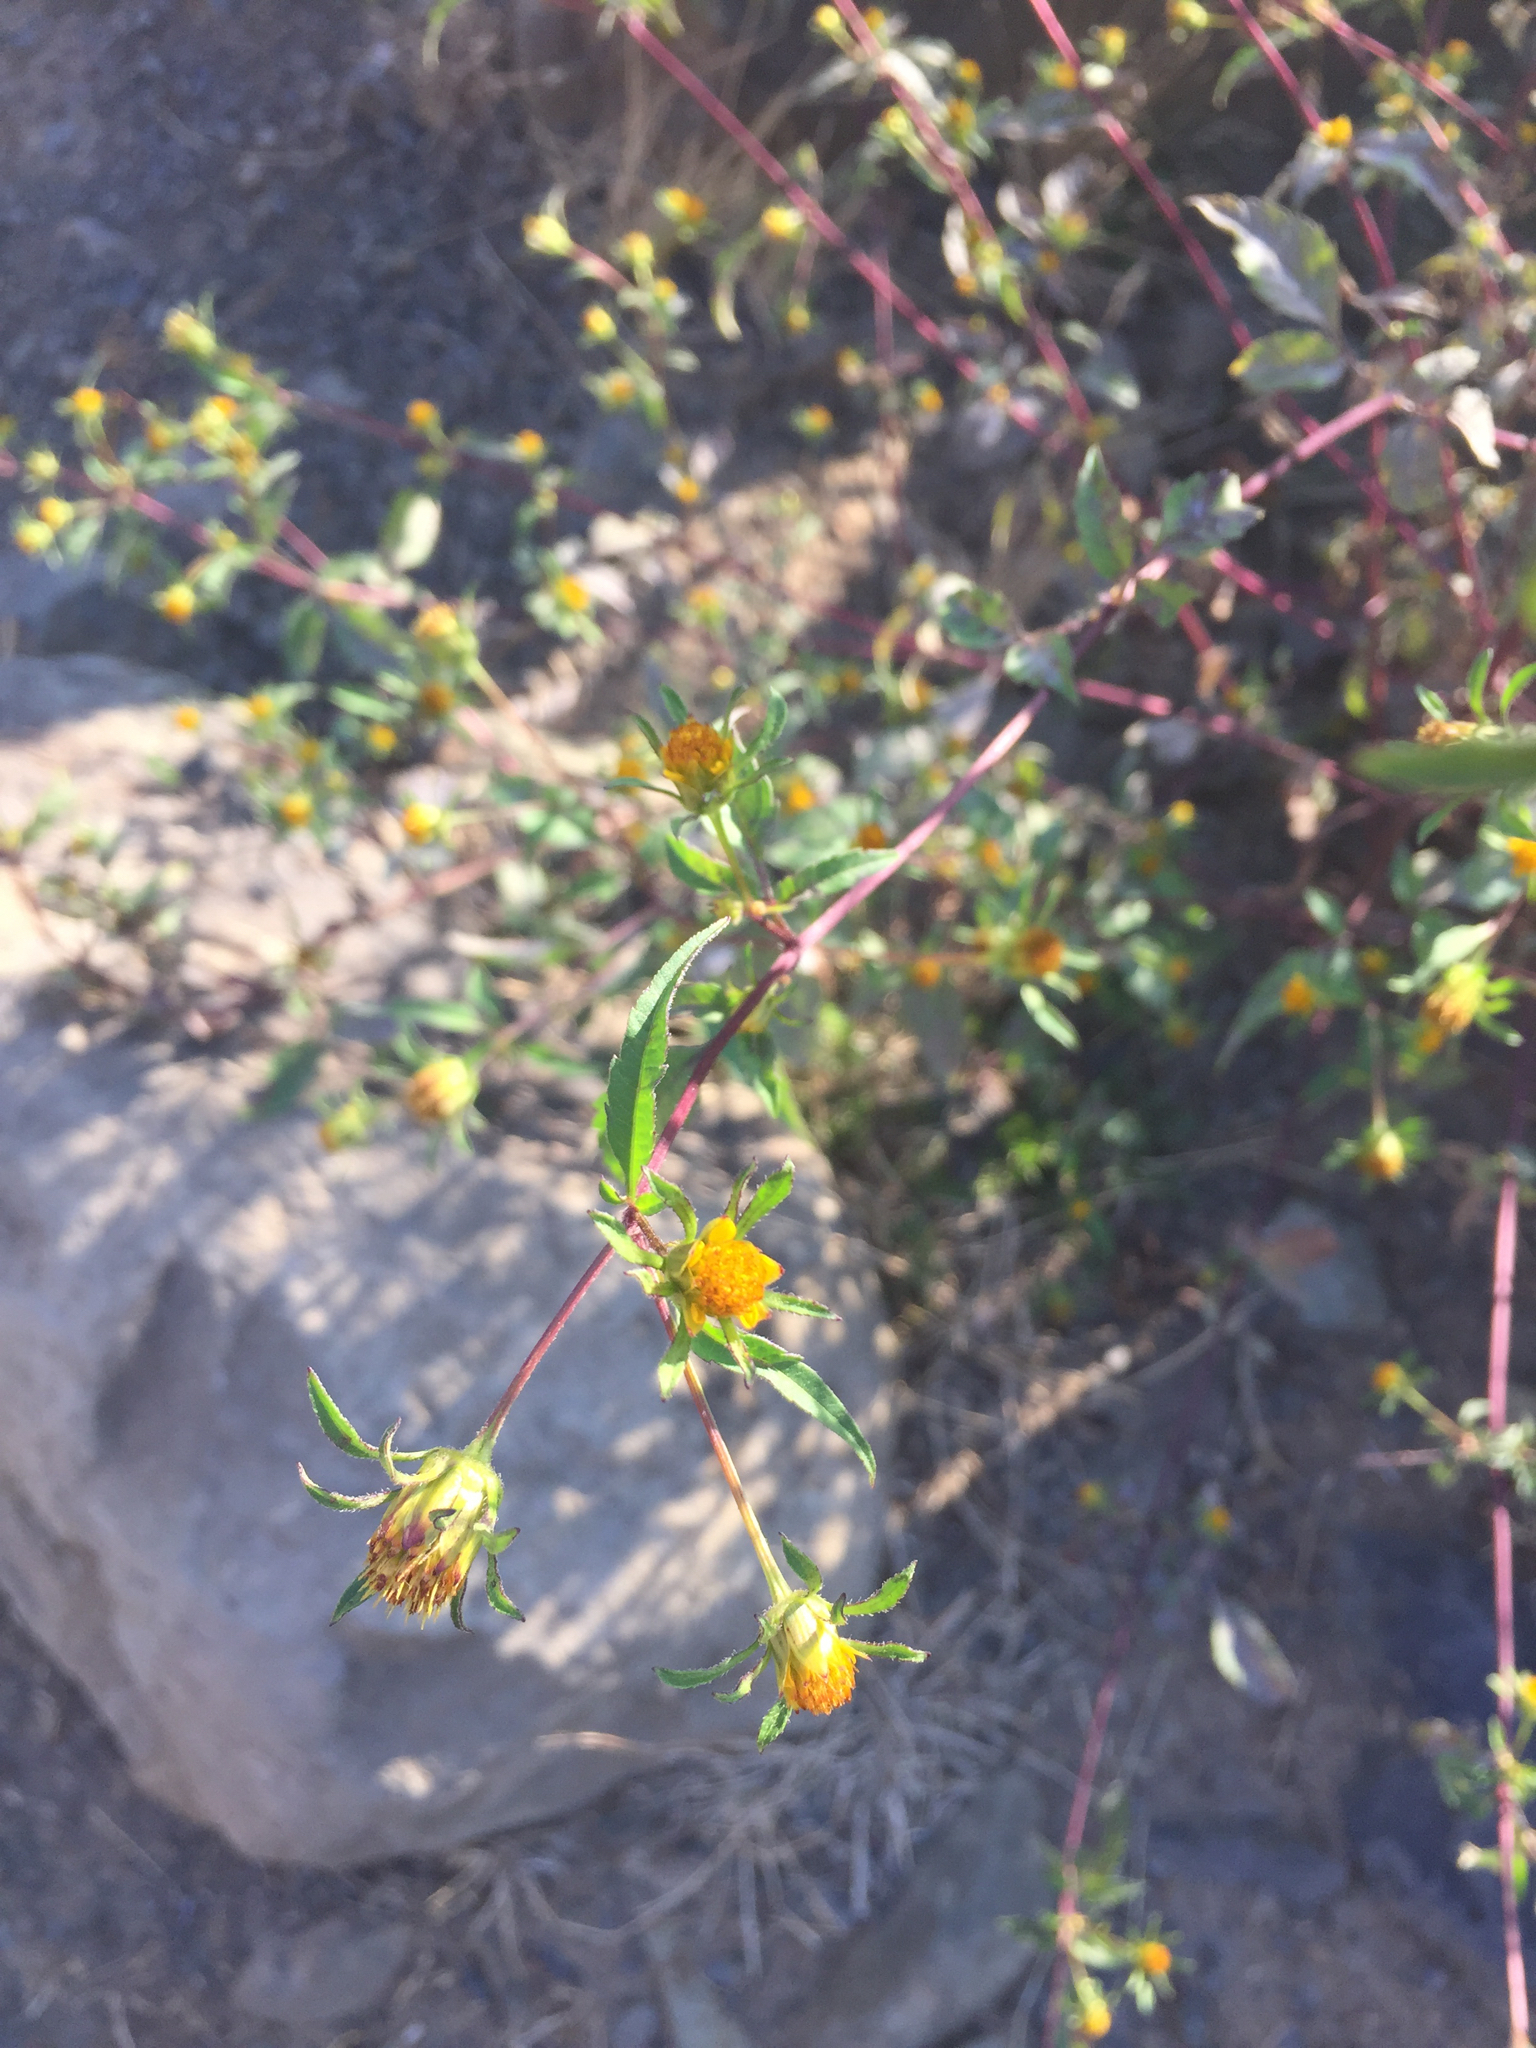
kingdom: Plantae
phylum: Tracheophyta
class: Magnoliopsida
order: Asterales
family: Asteraceae
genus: Bidens
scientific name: Bidens frondosa
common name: Beggarticks
